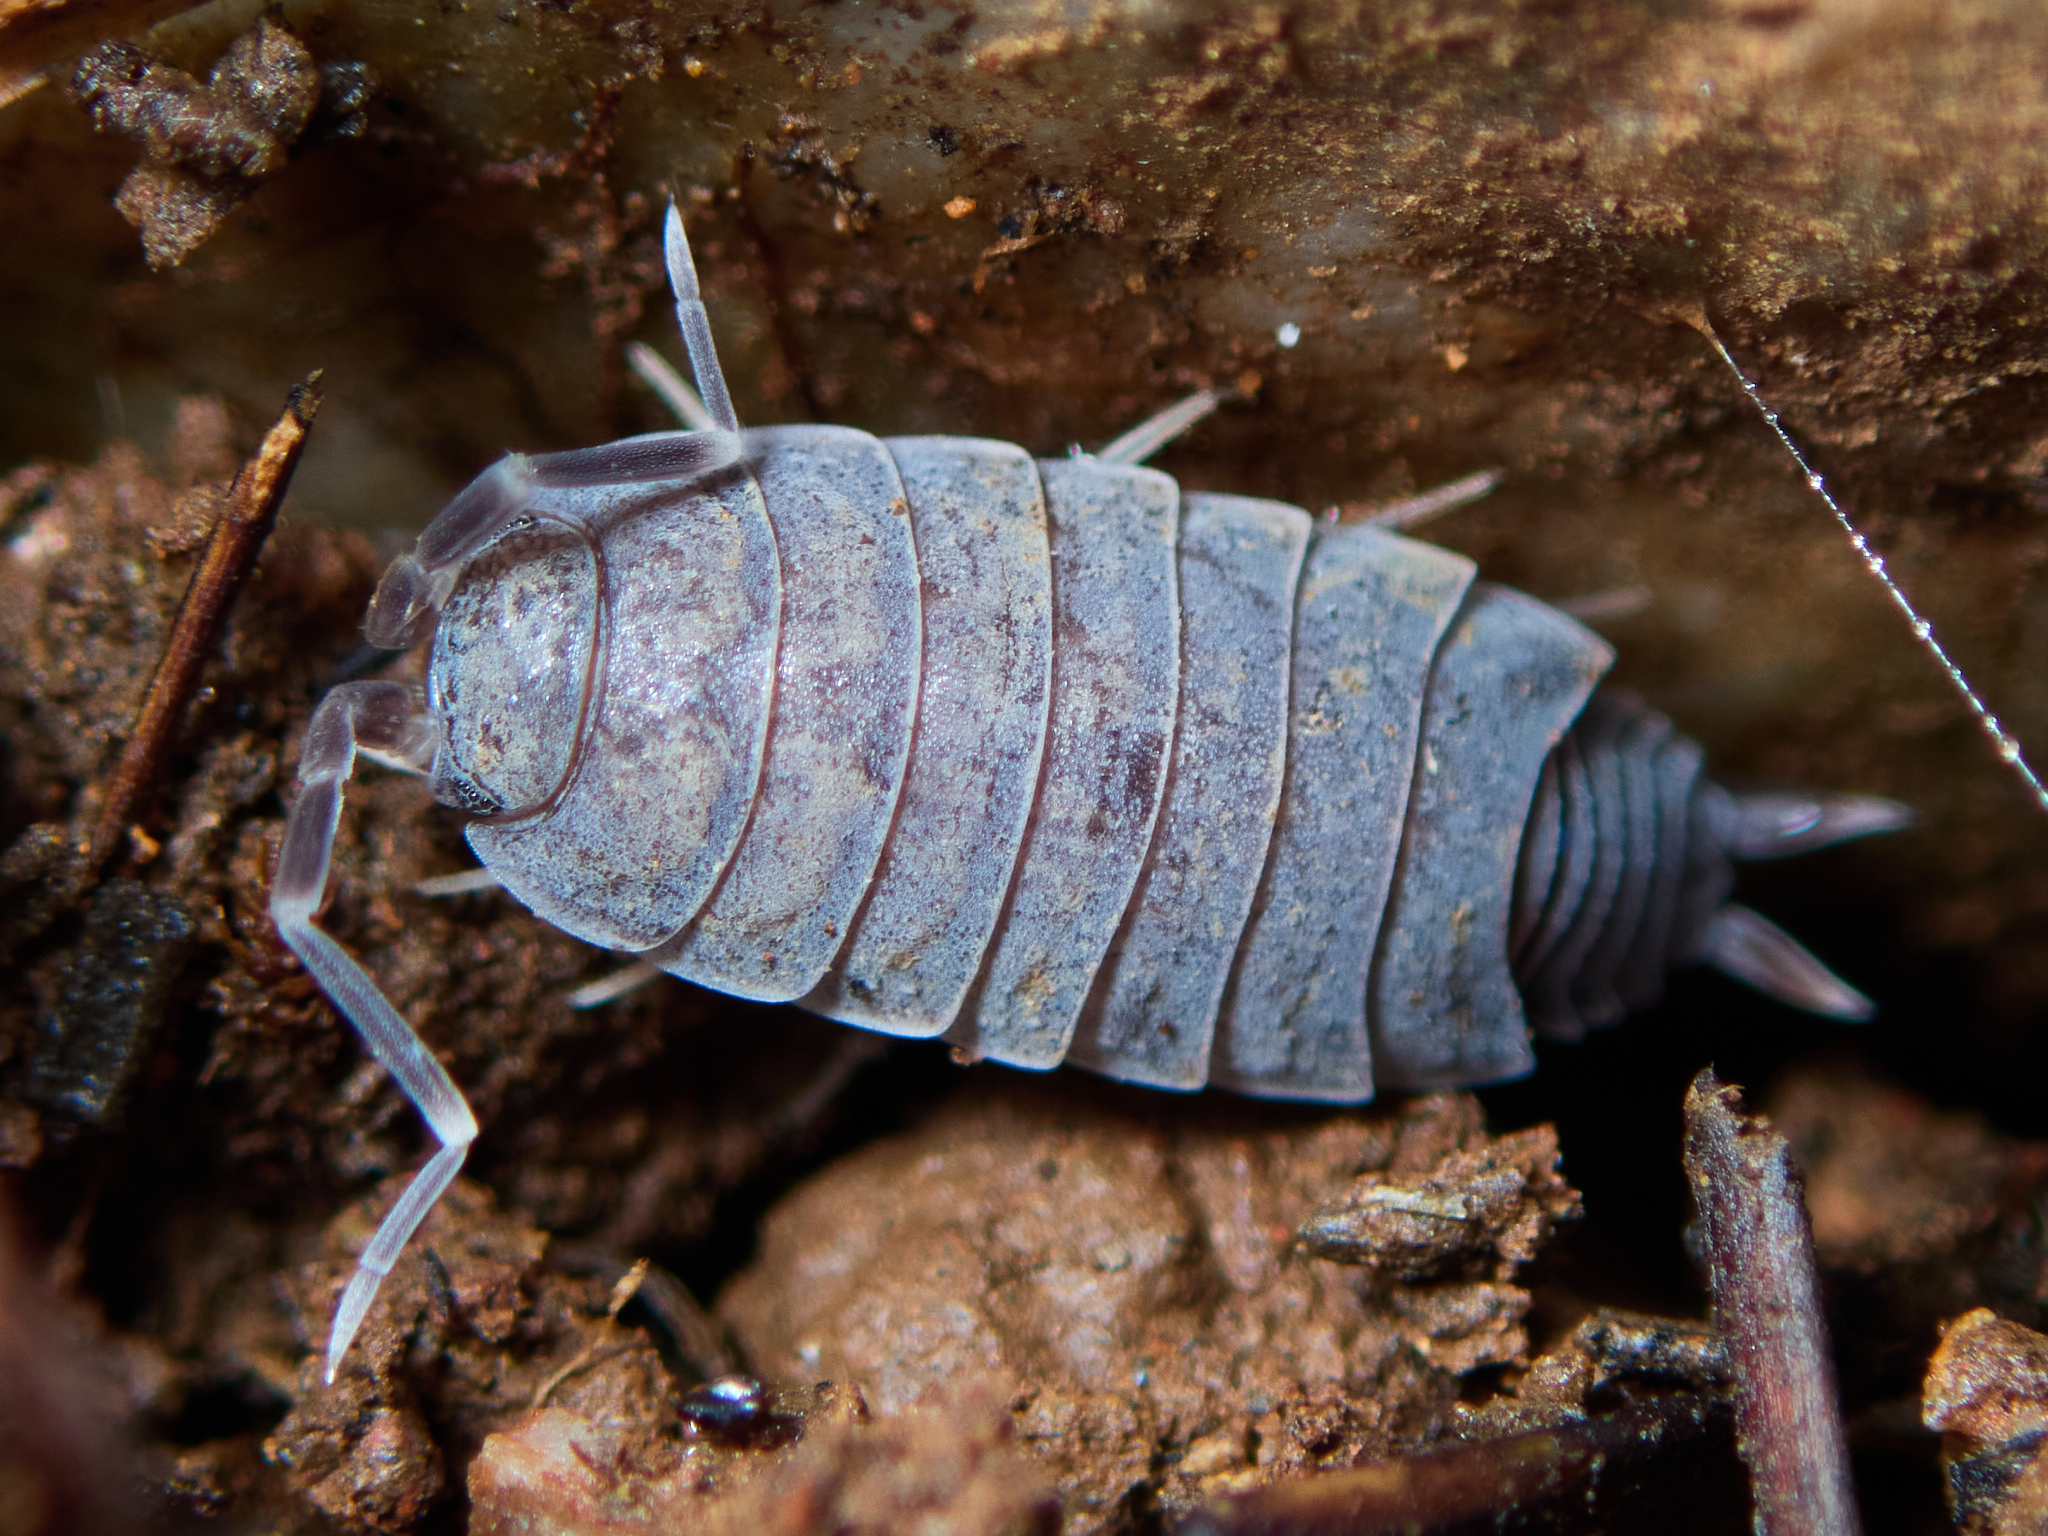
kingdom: Animalia
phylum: Arthropoda
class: Malacostraca
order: Isopoda
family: Porcellionidae
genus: Porcellionides
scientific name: Porcellionides
